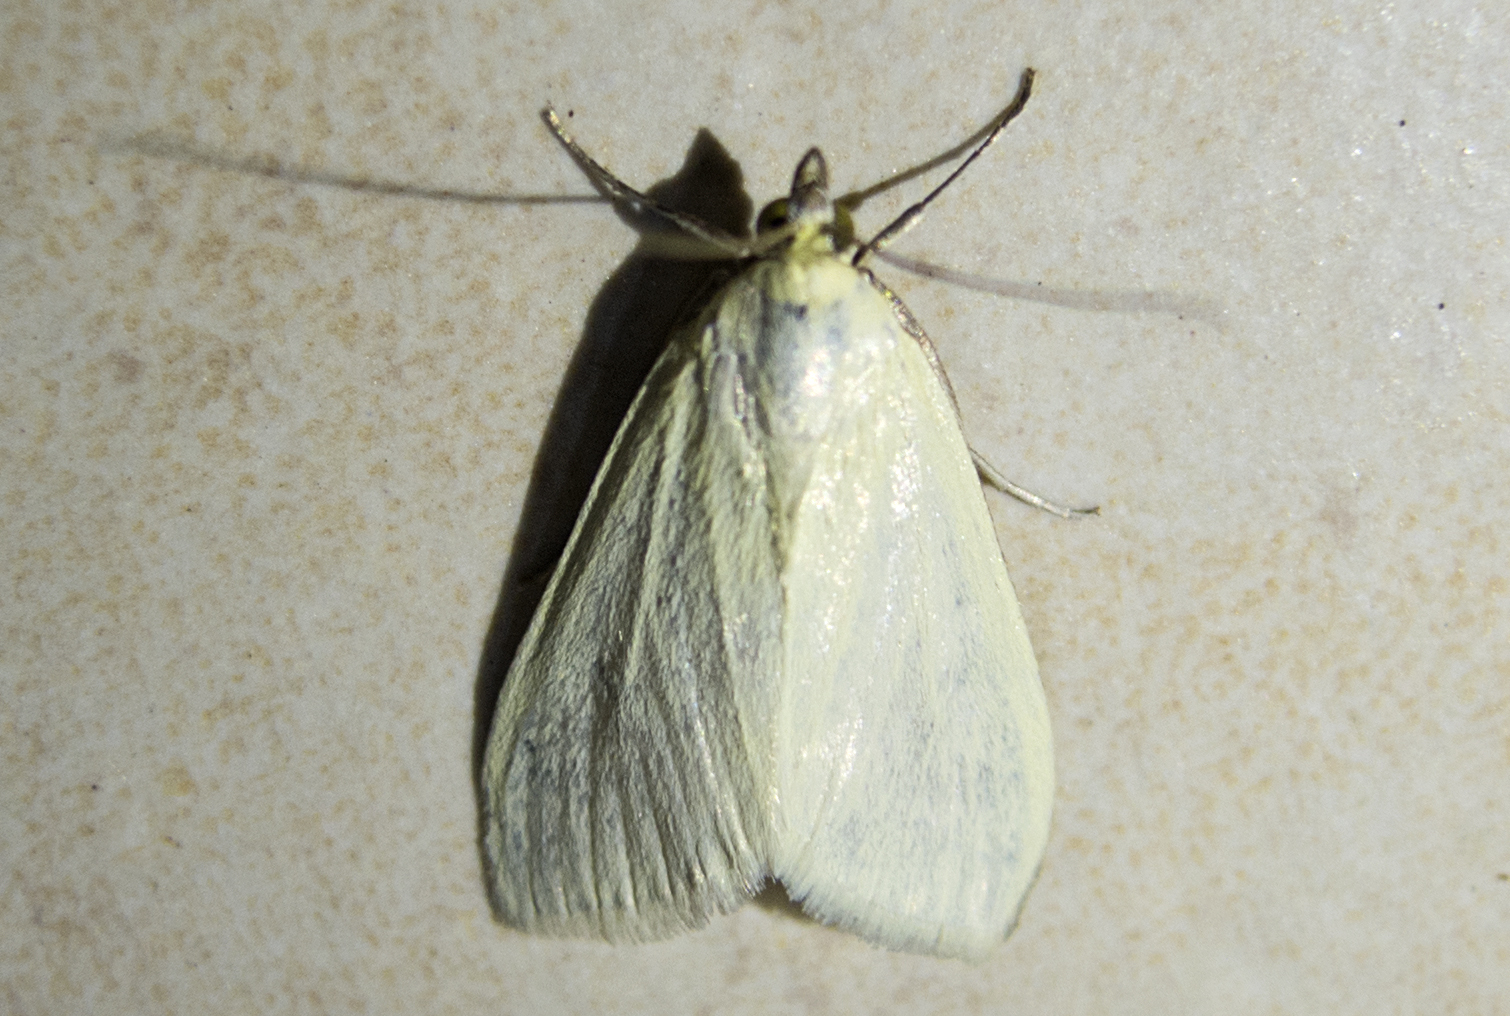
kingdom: Animalia
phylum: Arthropoda
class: Insecta
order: Lepidoptera
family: Crambidae
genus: Sitochroa
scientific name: Sitochroa palealis
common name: Greenish-yellow sitochroa moth
